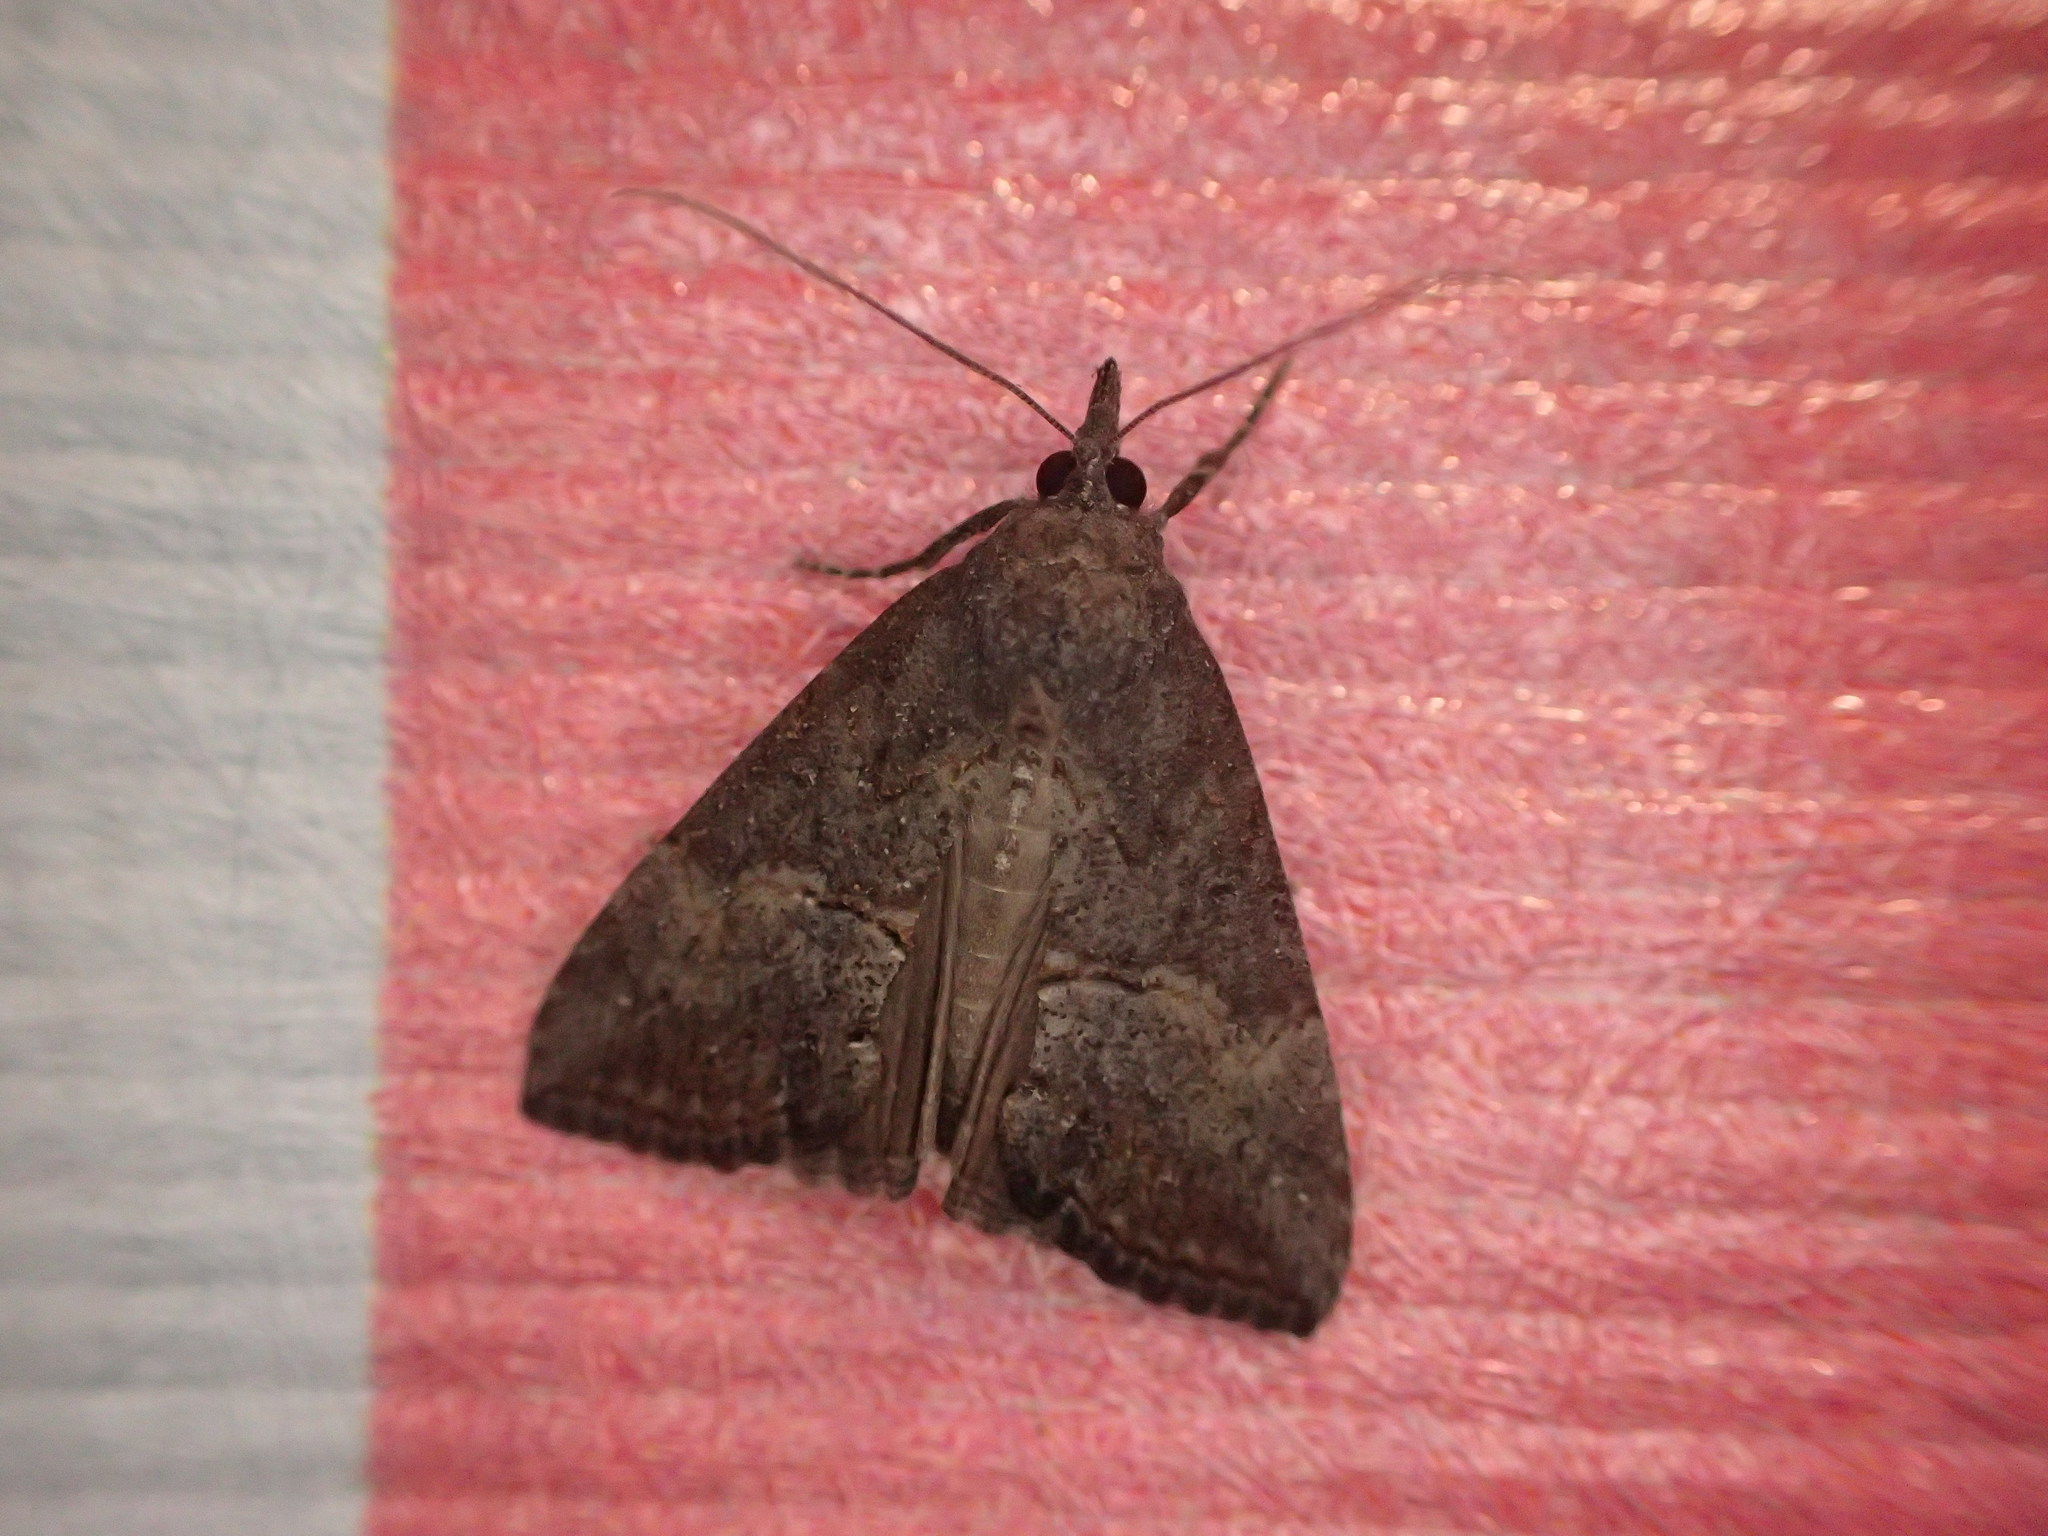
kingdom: Animalia
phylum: Arthropoda
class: Insecta
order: Lepidoptera
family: Erebidae
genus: Hypena
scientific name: Hypena scabra
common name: Green cloverworm
